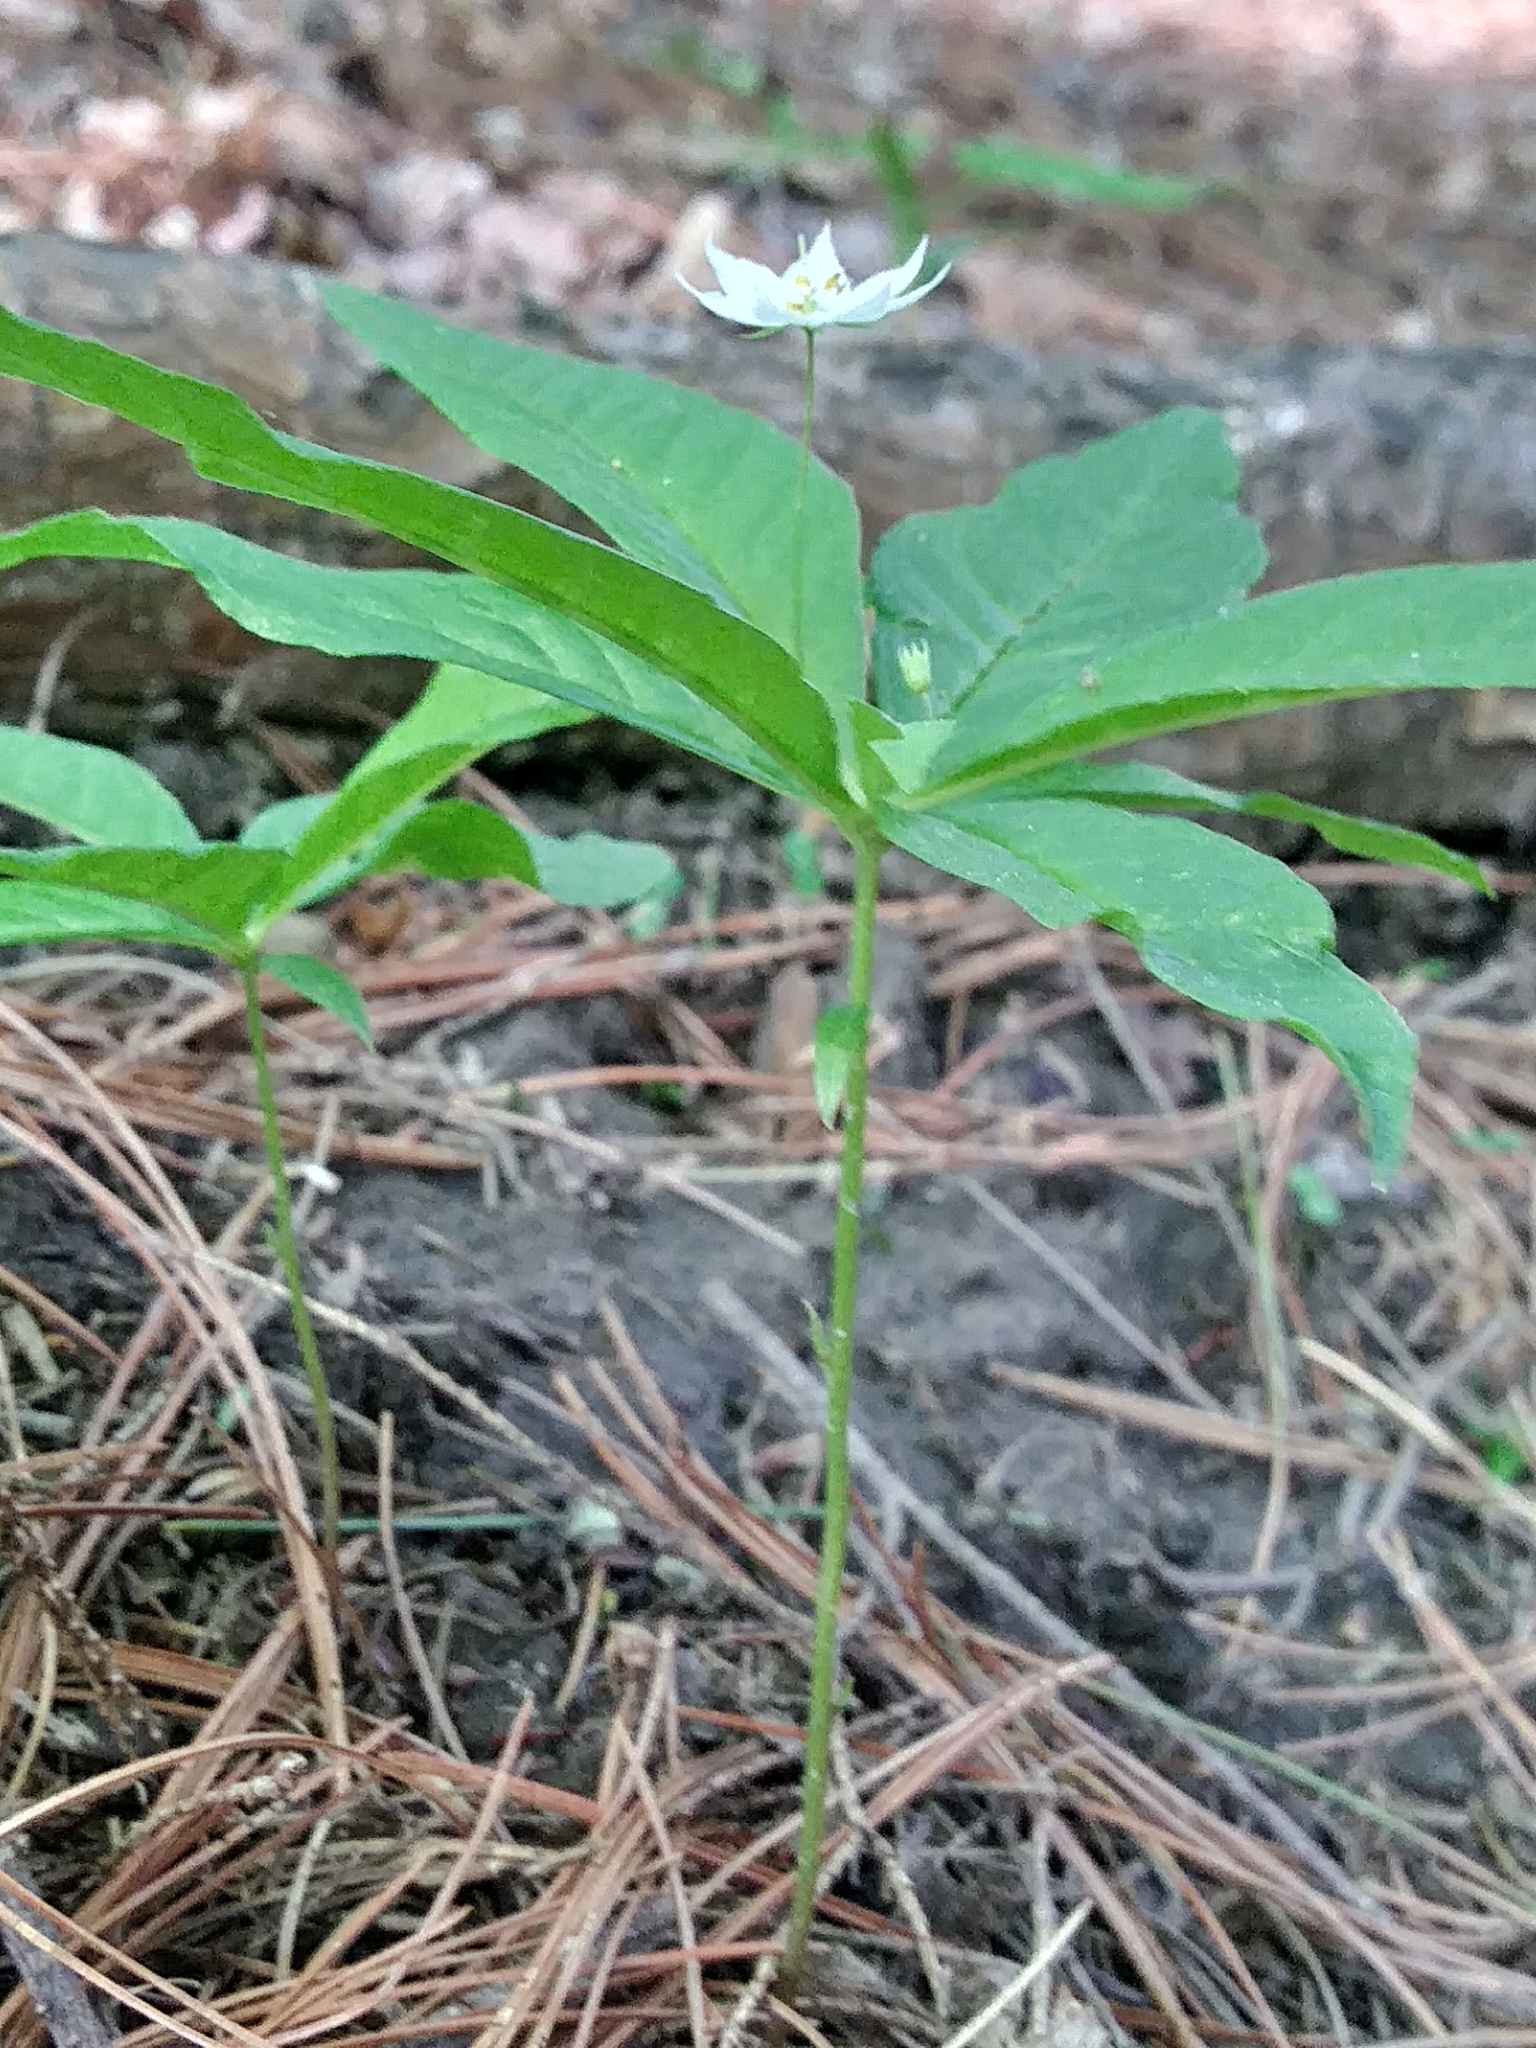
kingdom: Plantae
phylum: Tracheophyta
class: Magnoliopsida
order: Ericales
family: Primulaceae
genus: Lysimachia
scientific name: Lysimachia borealis
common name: American starflower
